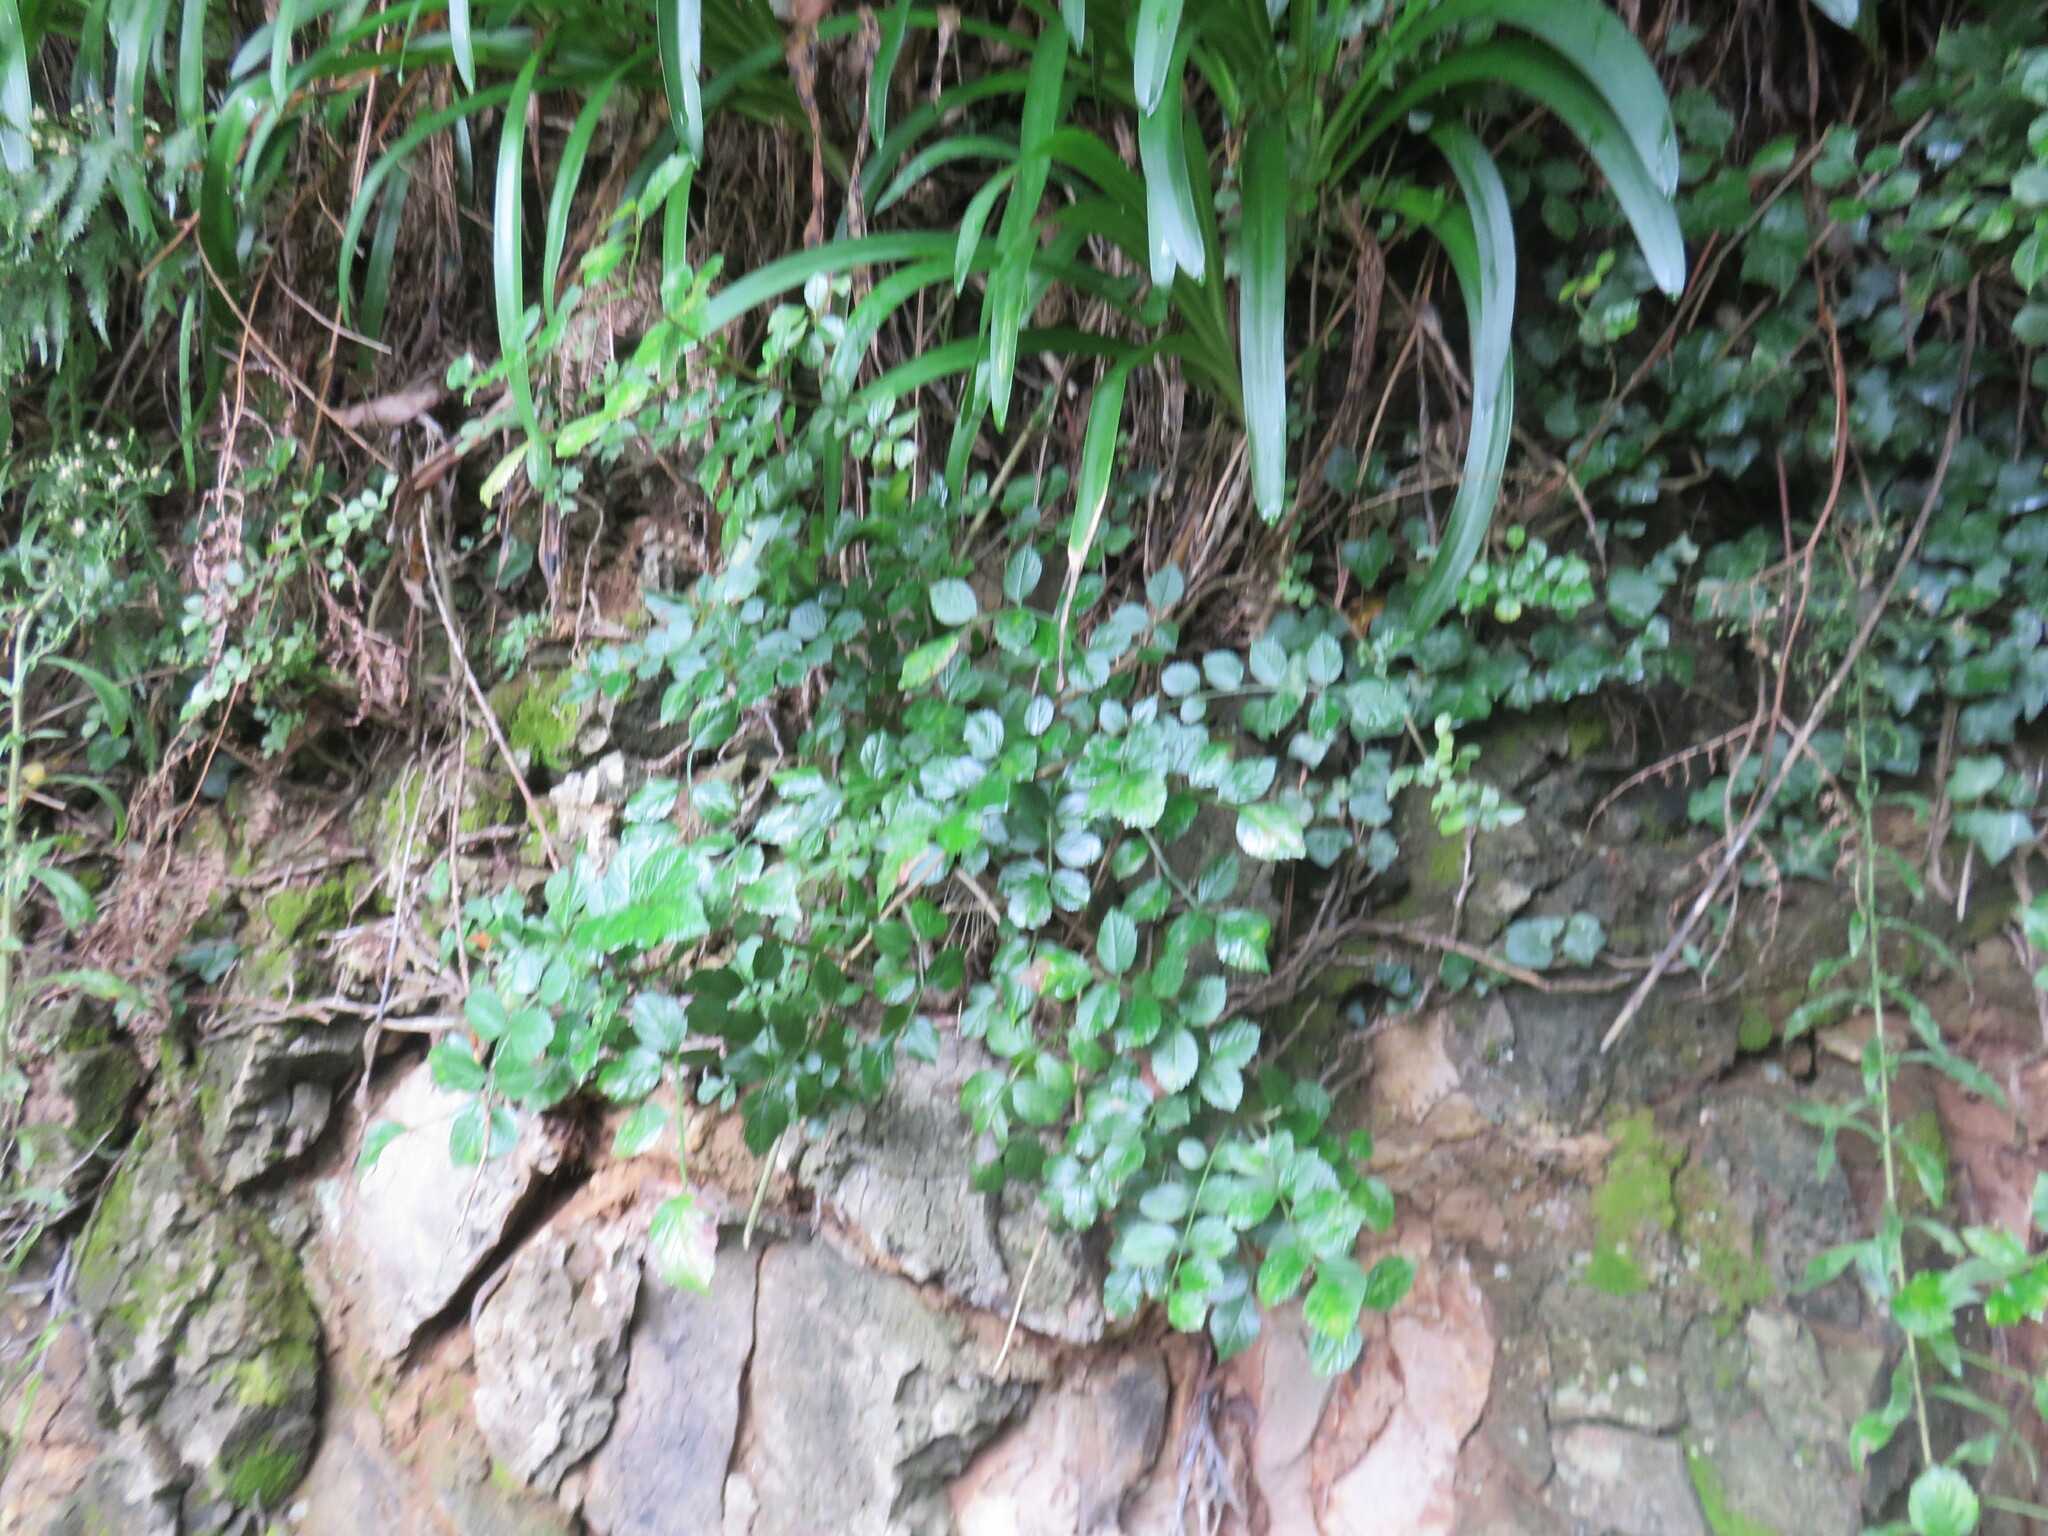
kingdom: Plantae
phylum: Tracheophyta
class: Liliopsida
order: Asparagales
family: Amaryllidaceae
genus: Agapanthus
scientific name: Agapanthus praecox
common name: African-lily
